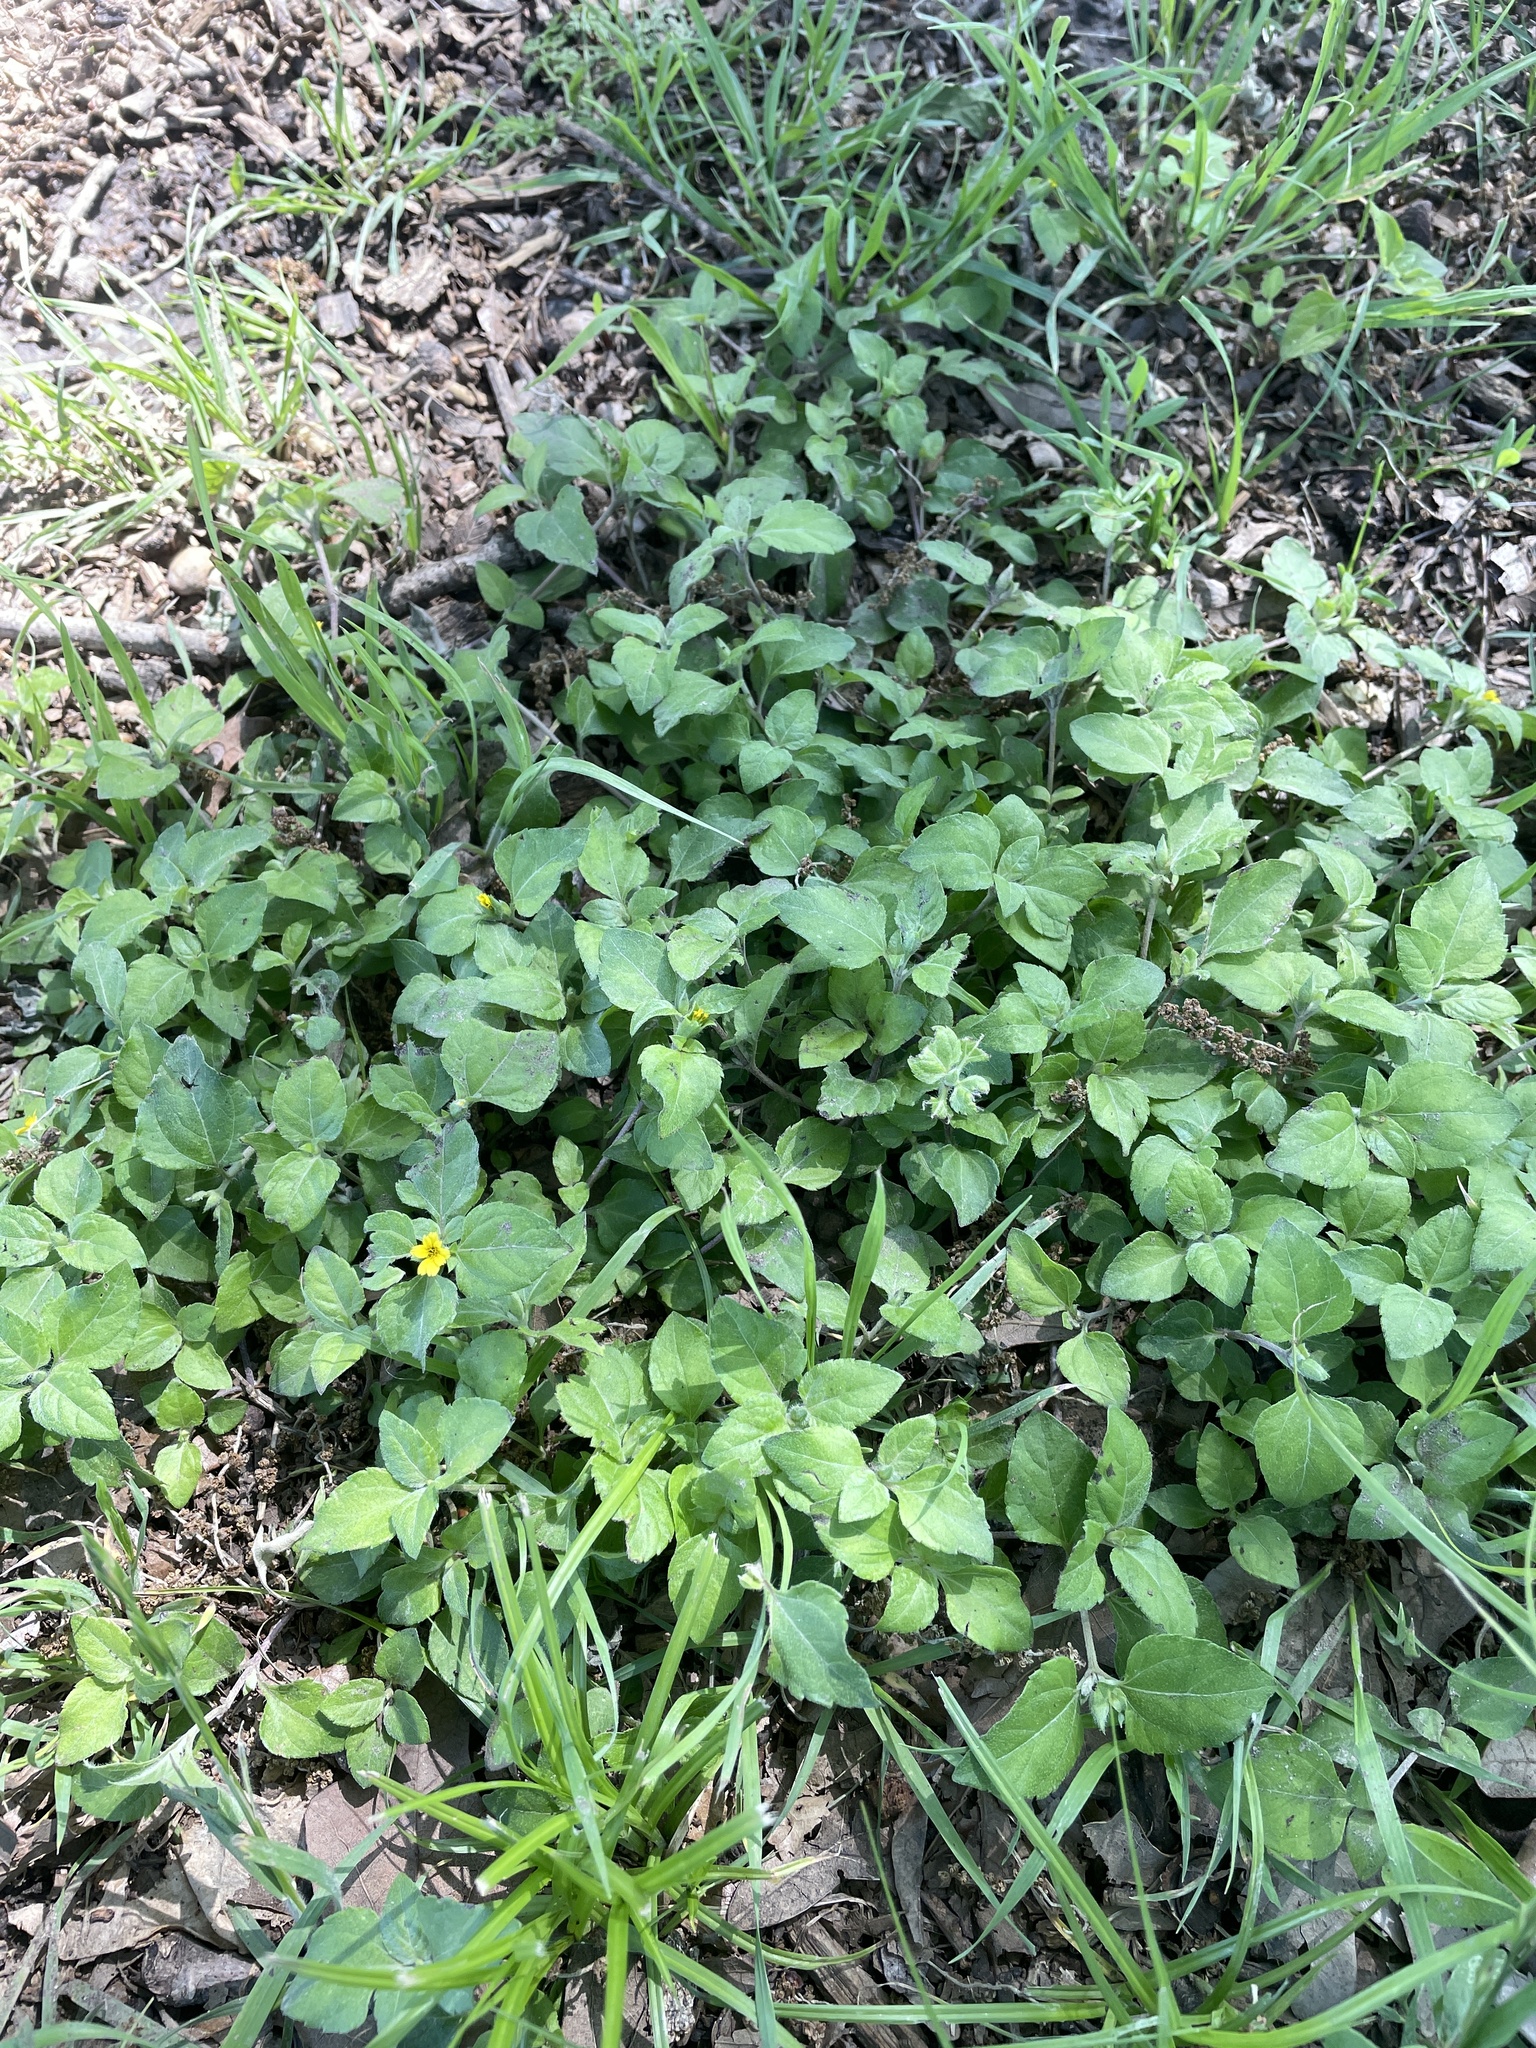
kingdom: Plantae
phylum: Tracheophyta
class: Magnoliopsida
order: Asterales
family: Asteraceae
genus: Calyptocarpus
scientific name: Calyptocarpus vialis
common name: Straggler daisy
